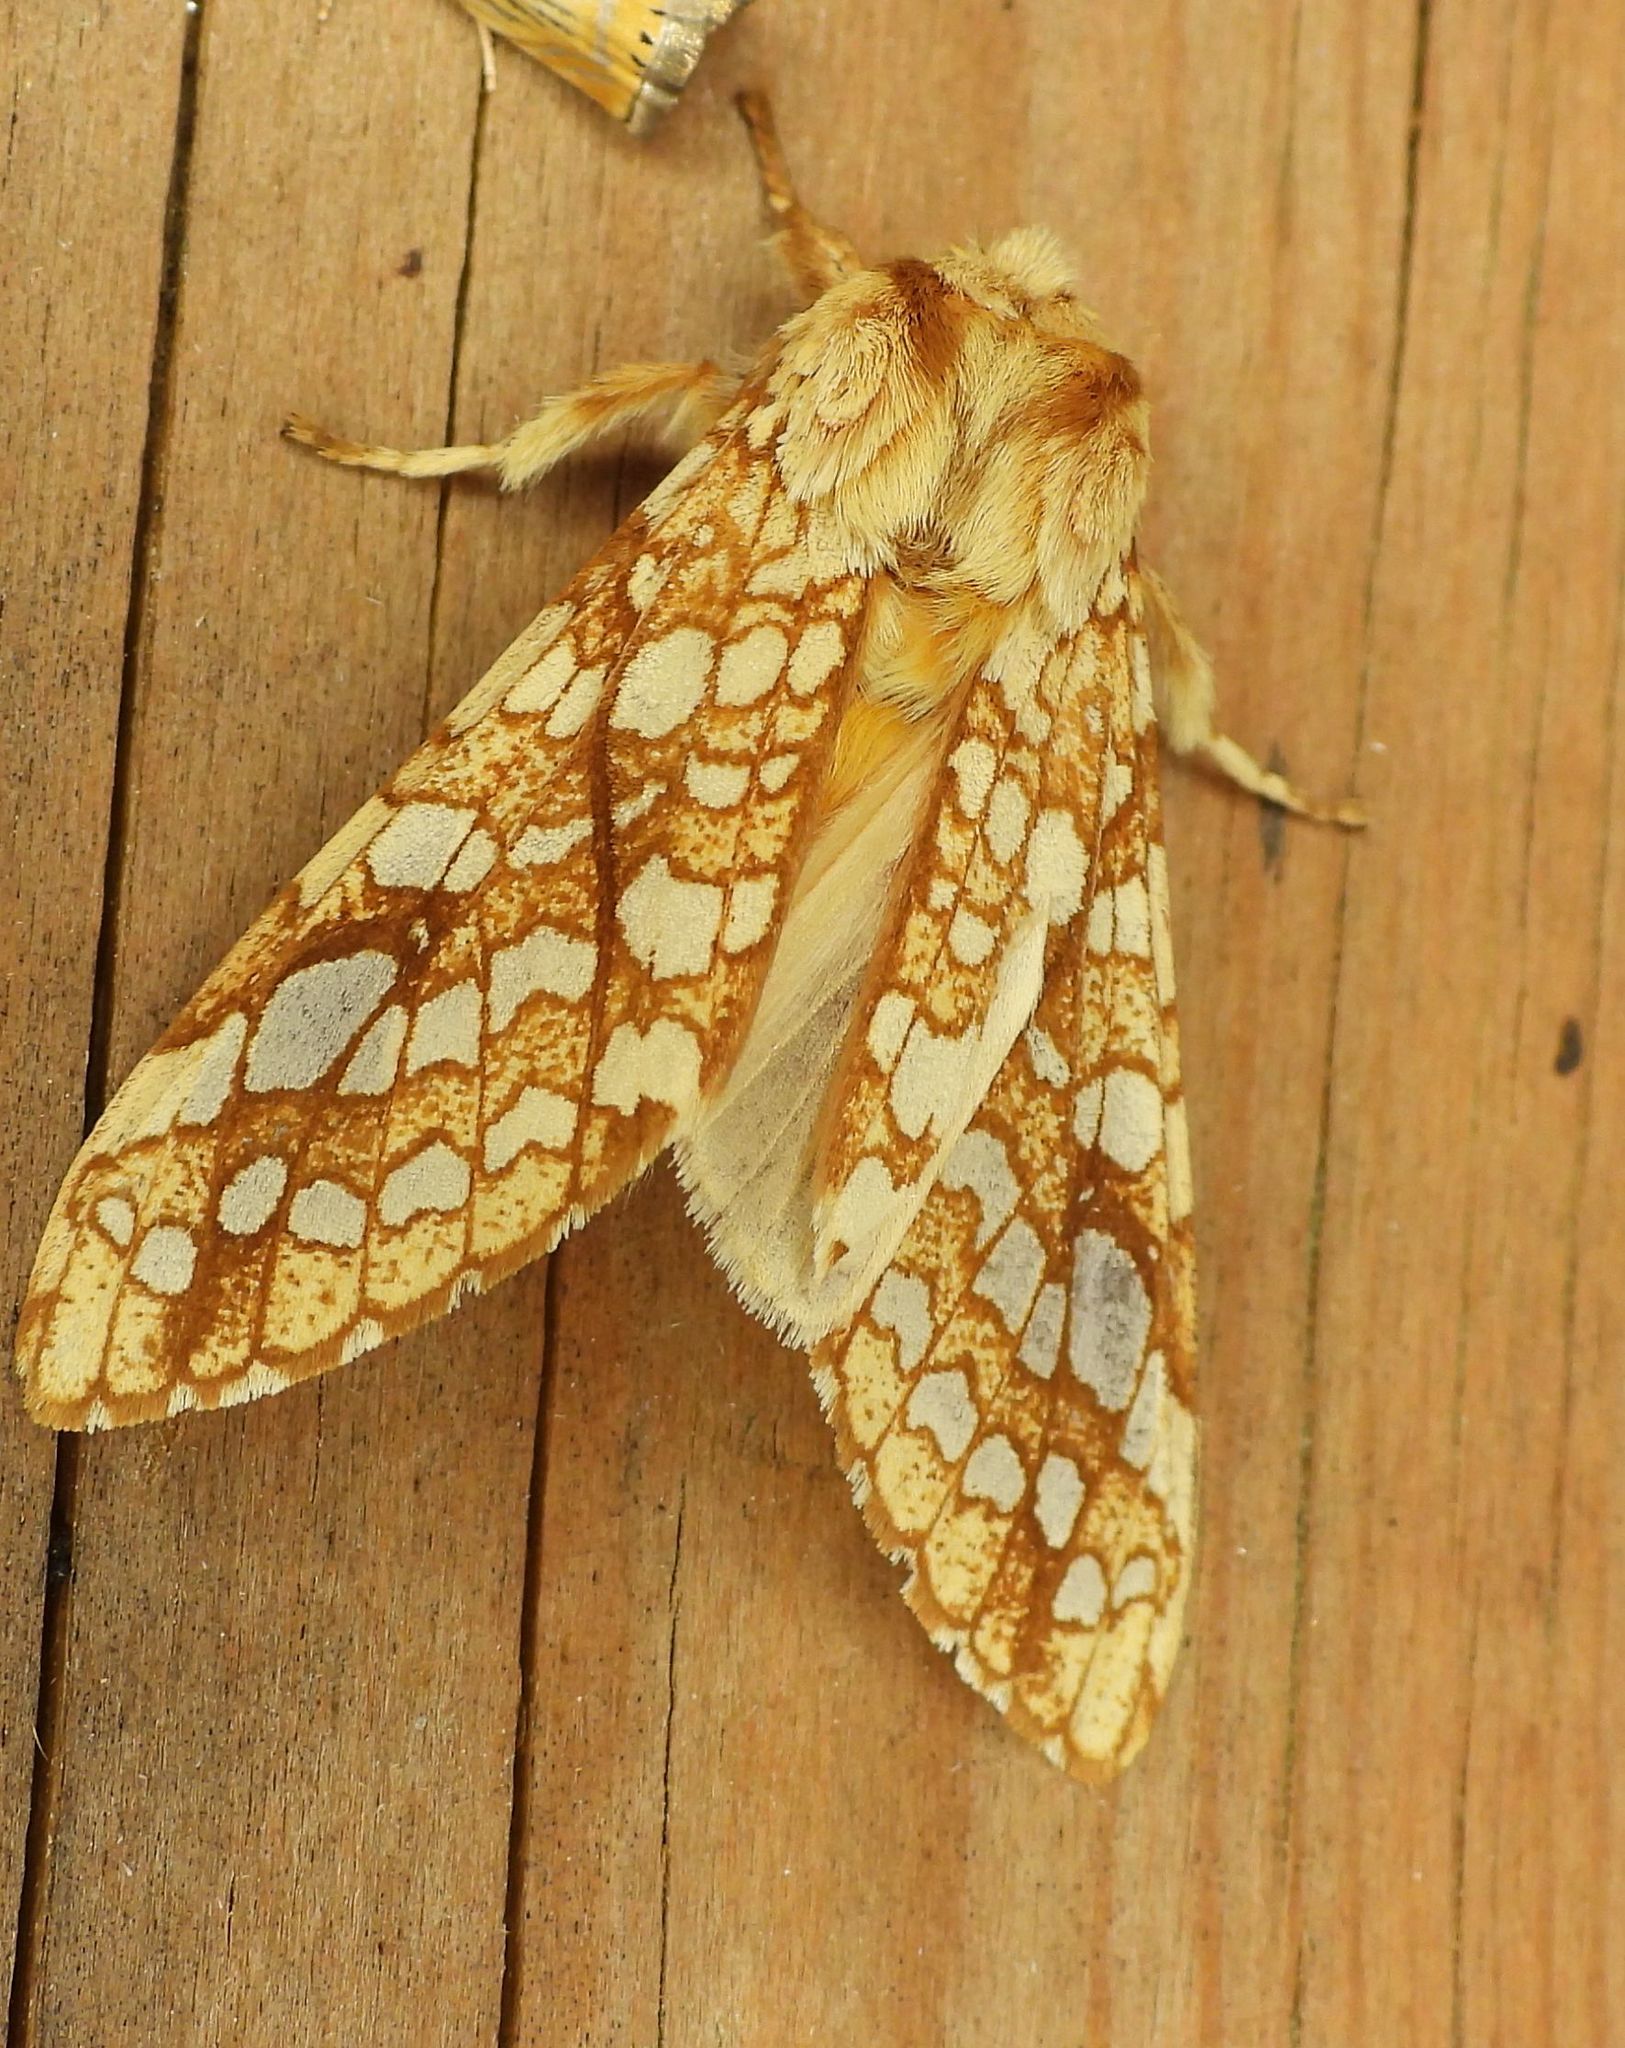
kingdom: Animalia
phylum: Arthropoda
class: Insecta
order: Lepidoptera
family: Erebidae
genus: Lophocampa
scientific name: Lophocampa caryae
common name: Hickory tussock moth
